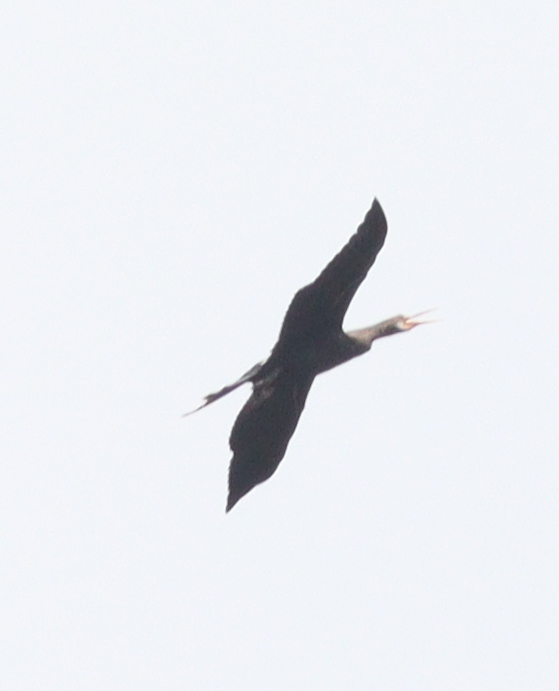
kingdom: Animalia
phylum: Chordata
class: Aves
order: Suliformes
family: Anhingidae
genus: Anhinga
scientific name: Anhinga anhinga
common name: Anhinga
